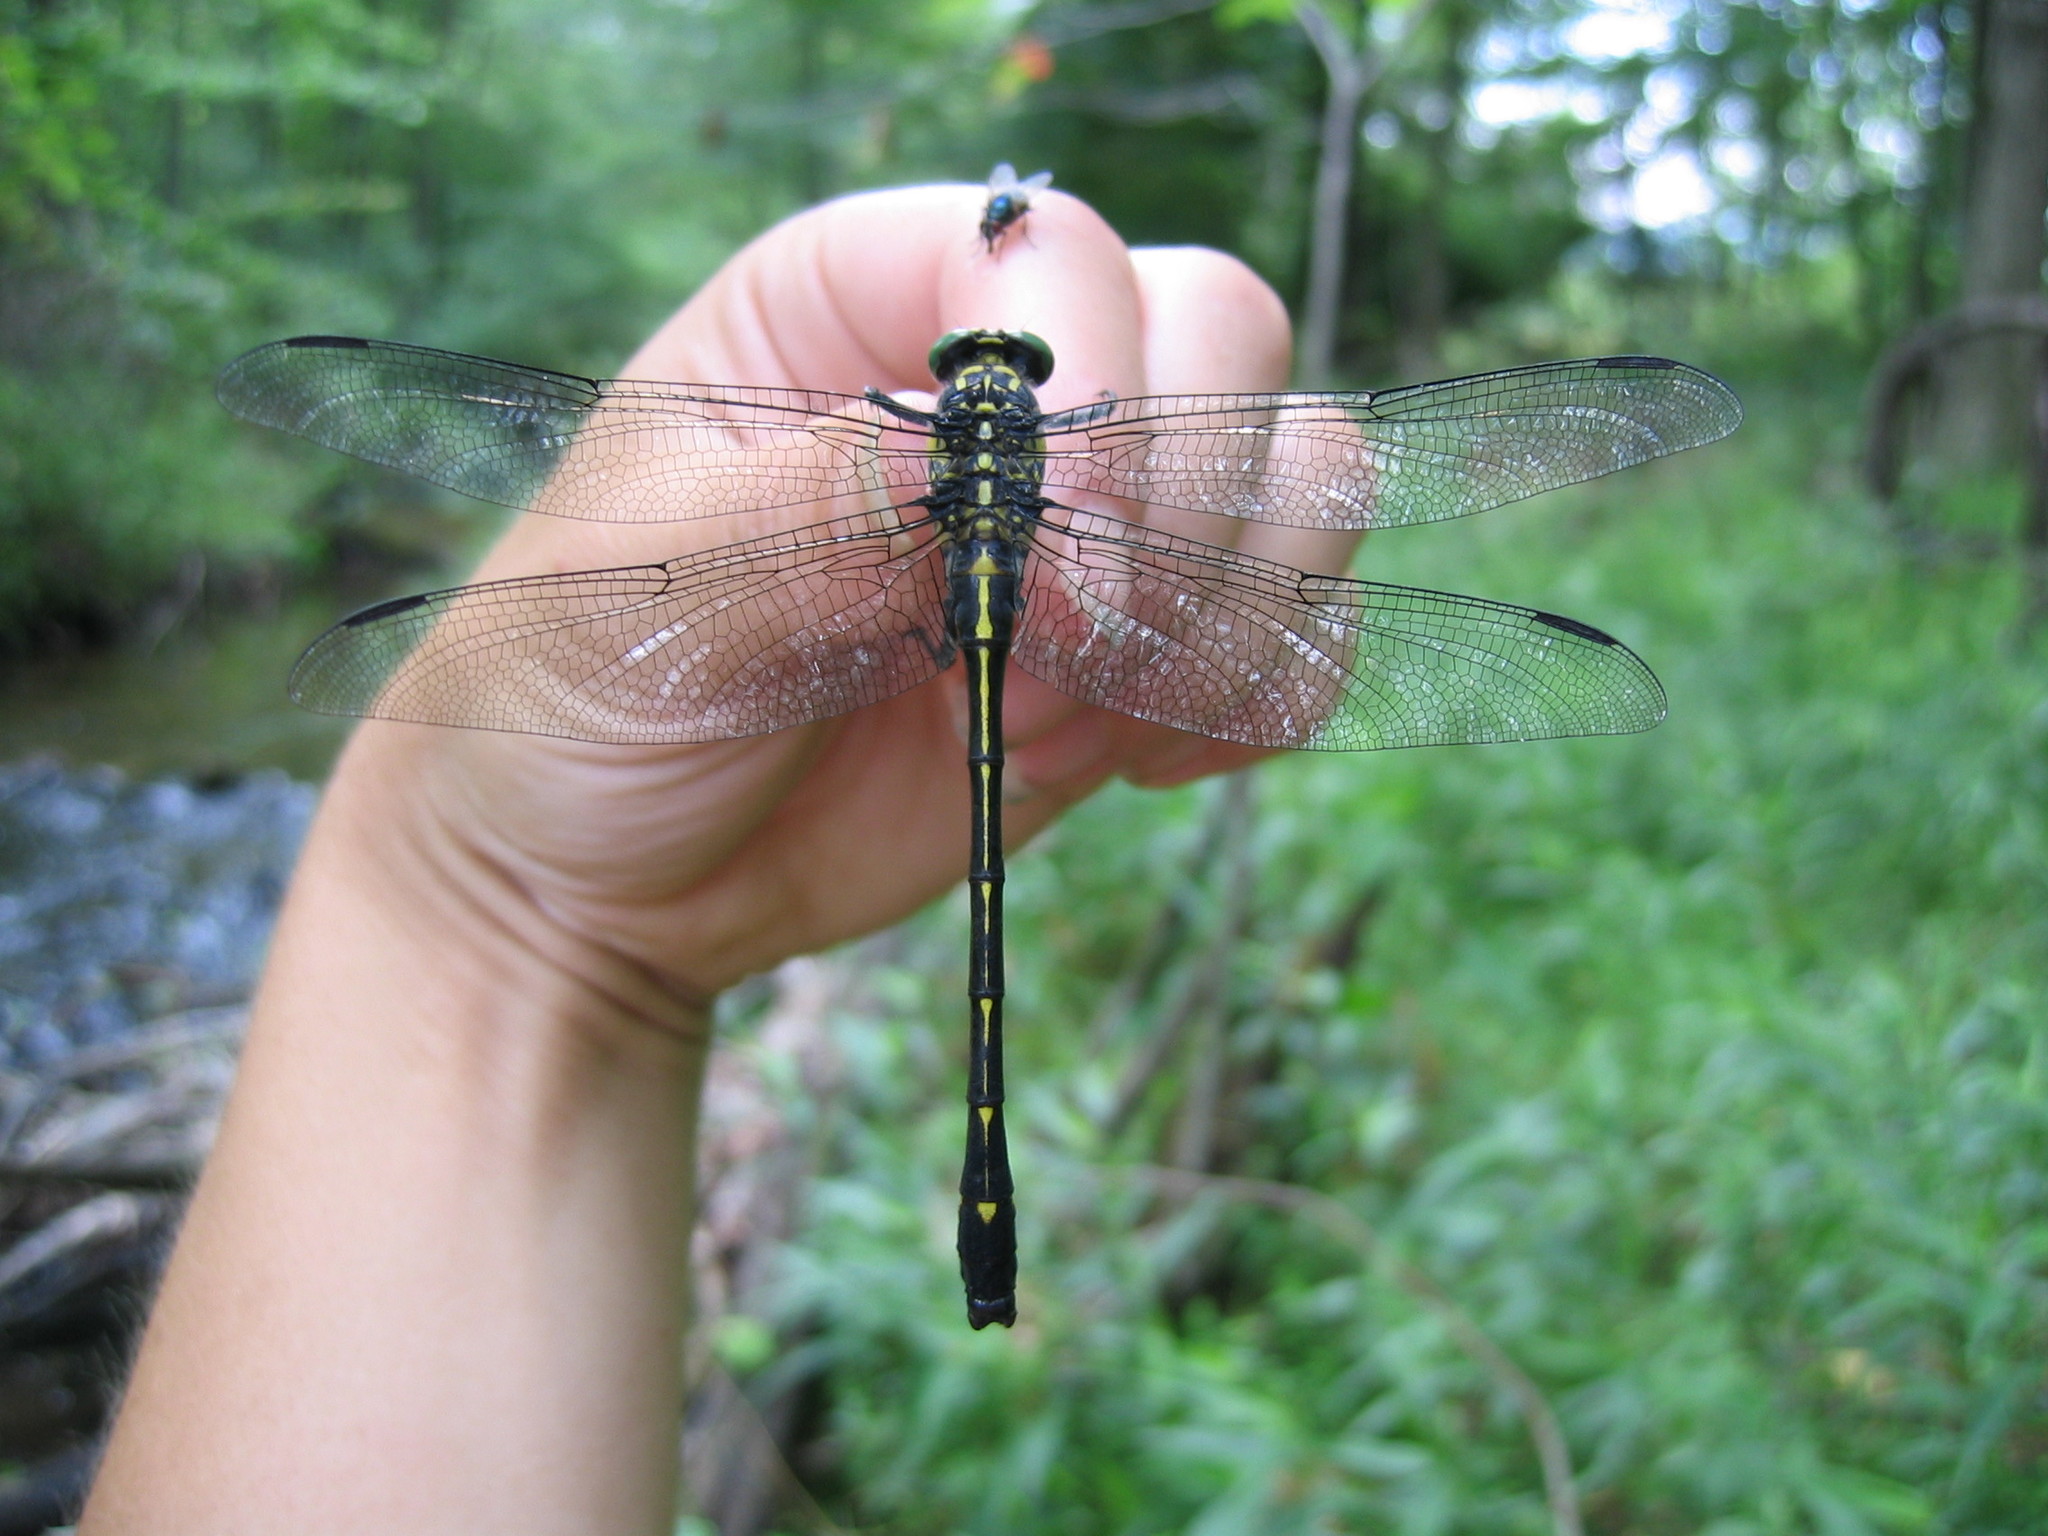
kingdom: Animalia
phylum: Arthropoda
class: Insecta
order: Odonata
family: Gomphidae
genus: Hagenius
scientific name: Hagenius brevistylus
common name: Dragonhunter
